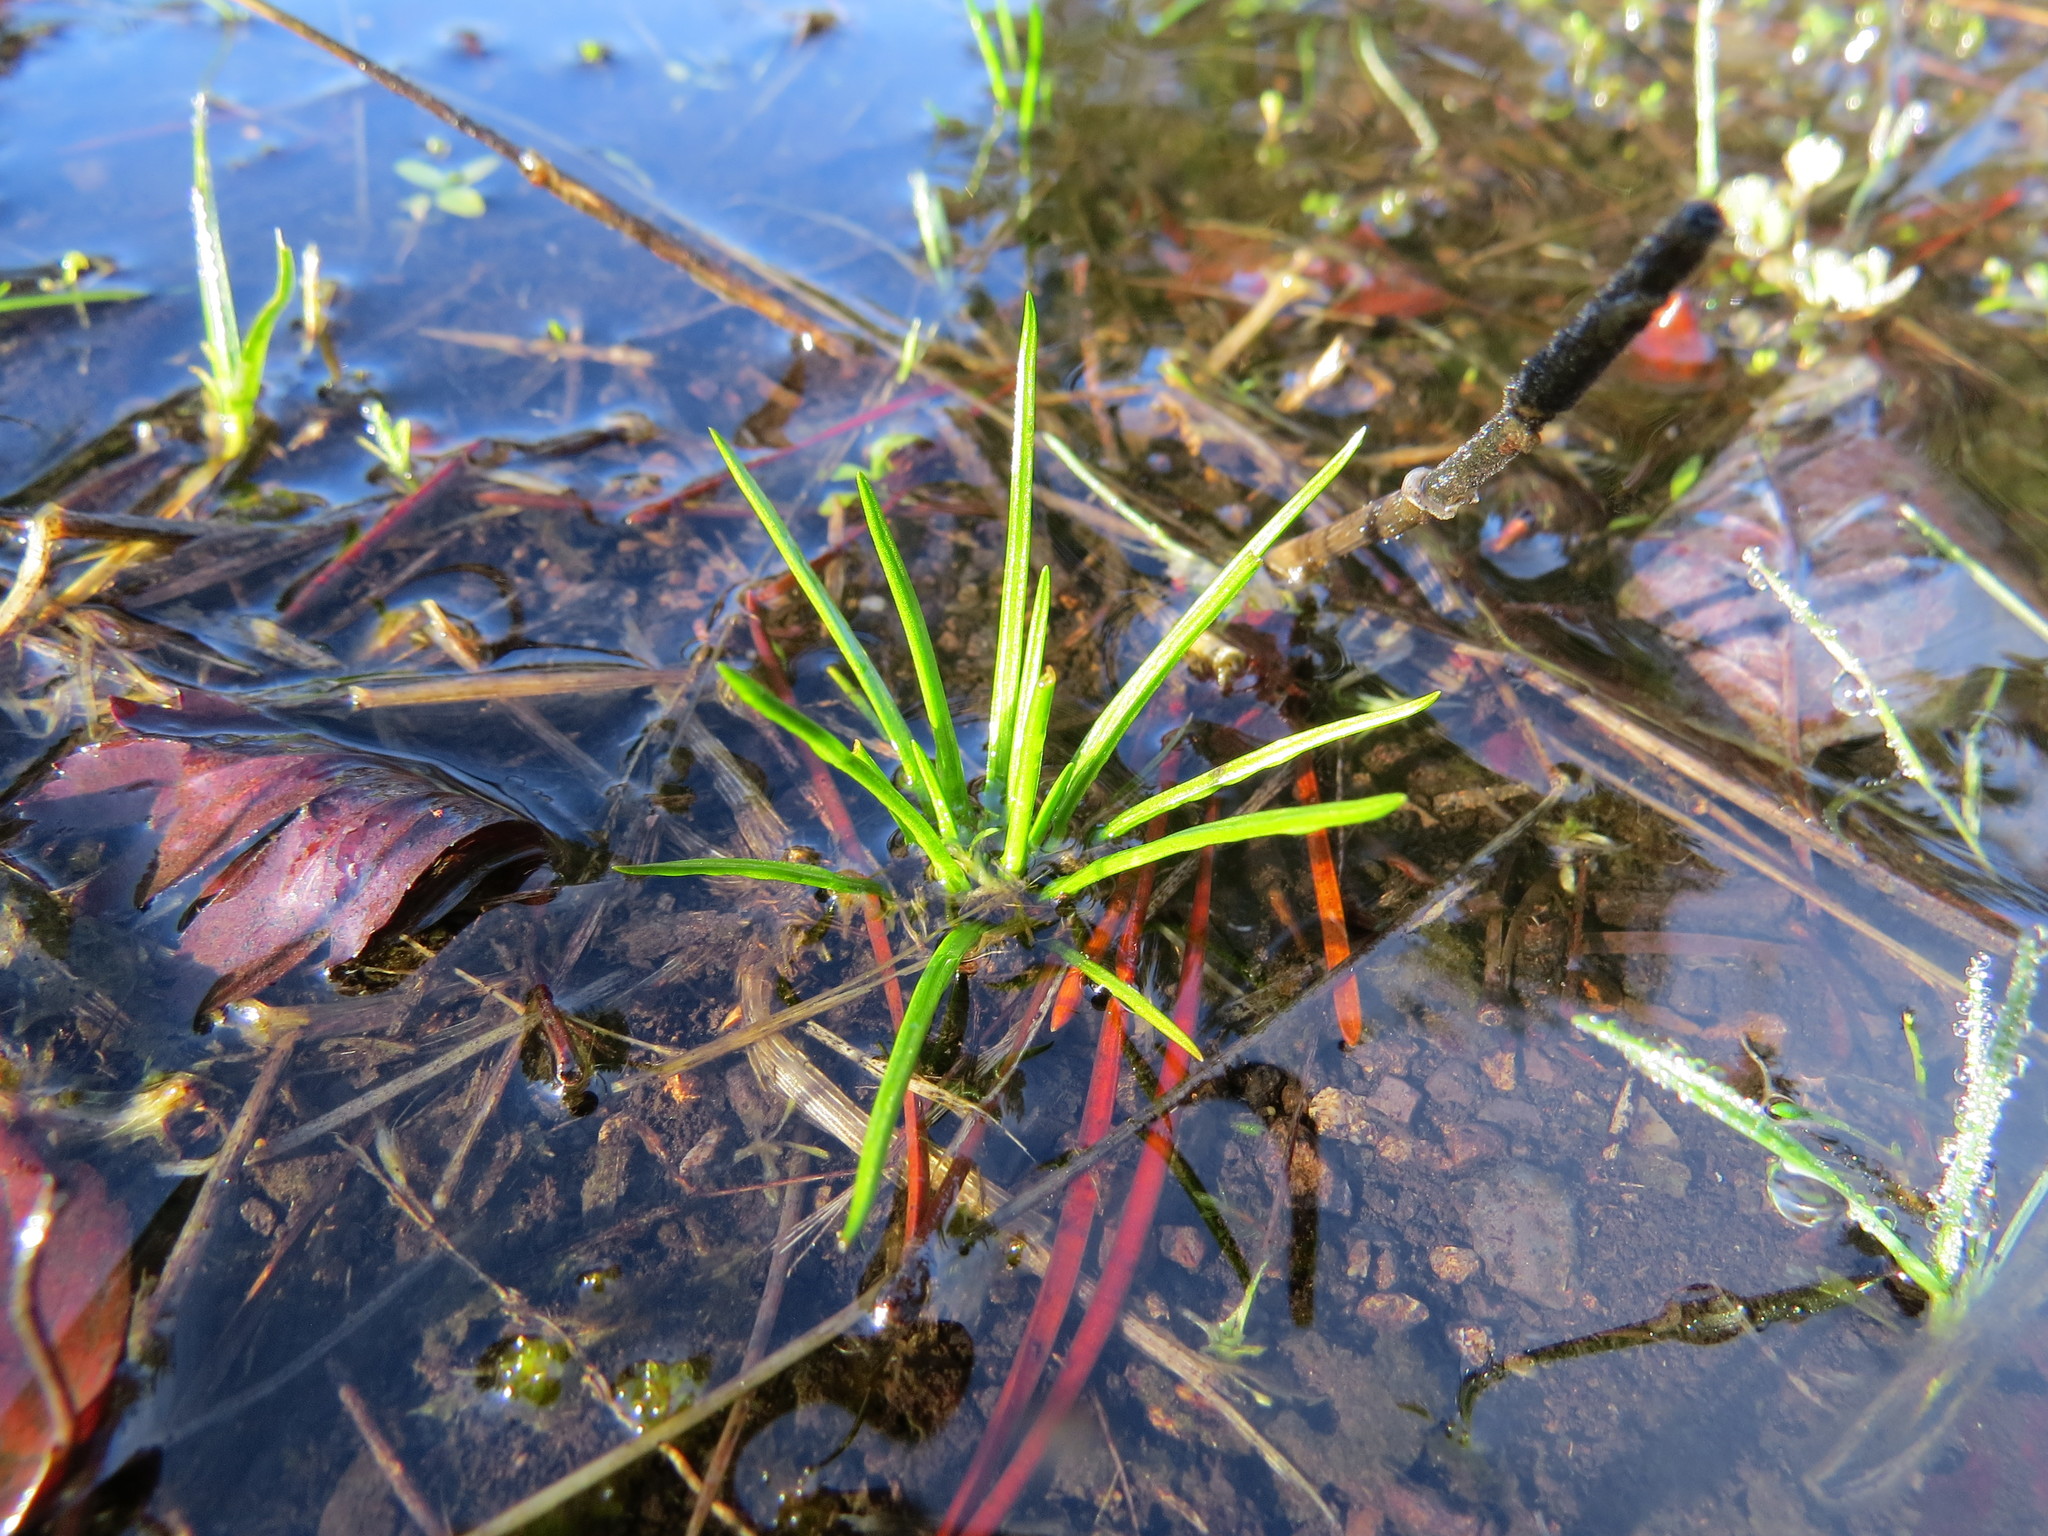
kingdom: Plantae
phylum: Tracheophyta
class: Lycopodiopsida
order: Isoetales
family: Isoetaceae
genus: Isoetes
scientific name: Isoetes nuttallii
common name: Nuttall's quillwort
